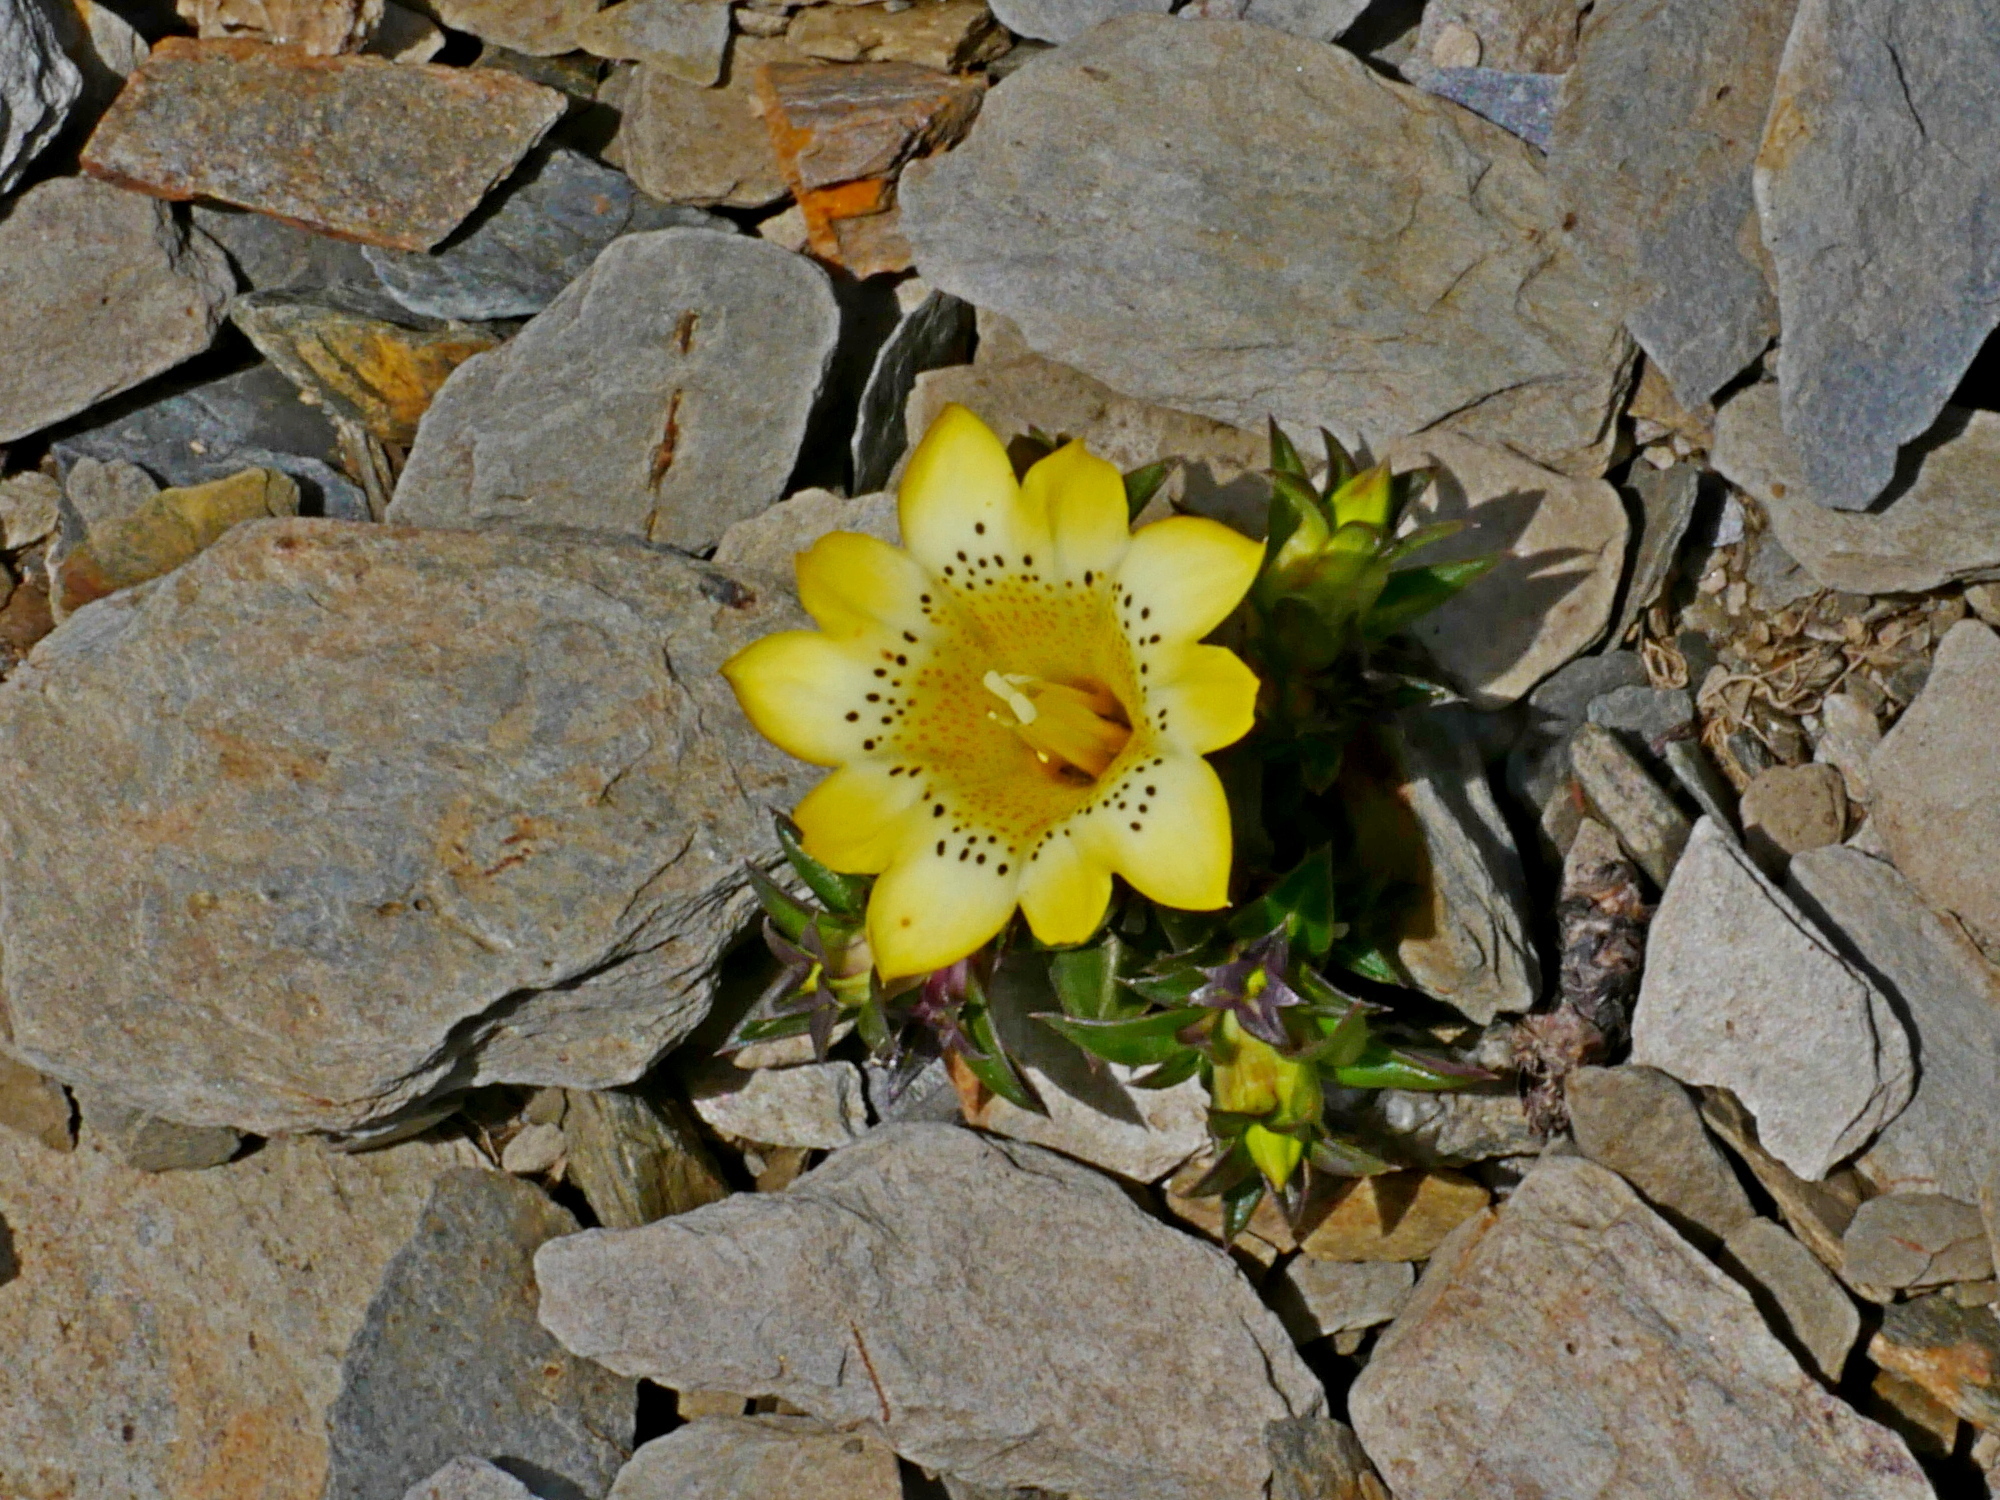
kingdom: Plantae
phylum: Tracheophyta
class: Magnoliopsida
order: Gentianales
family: Gentianaceae
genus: Gentiana
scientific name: Gentiana scabrida
